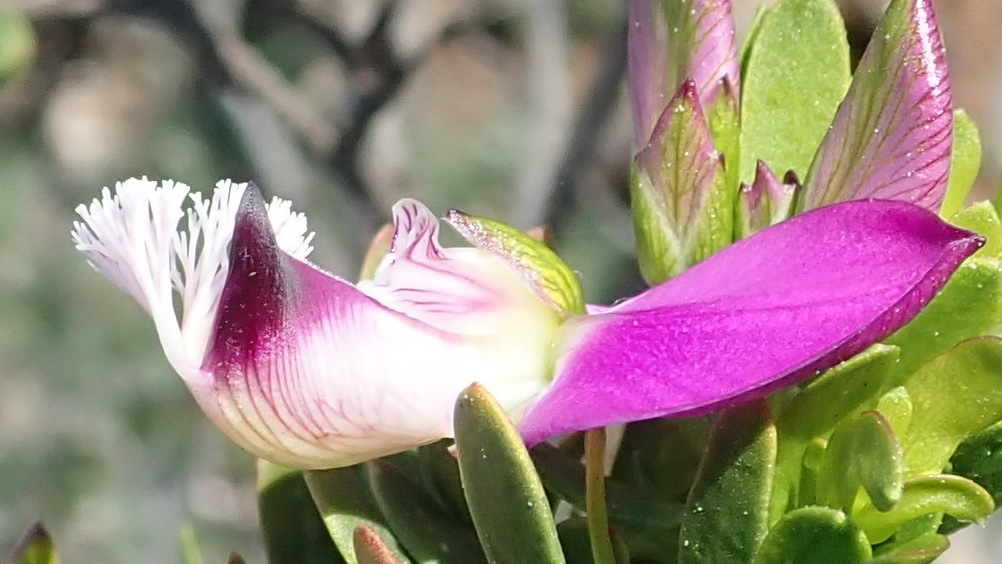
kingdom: Plantae
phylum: Tracheophyta
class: Magnoliopsida
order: Fabales
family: Polygalaceae
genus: Polygala
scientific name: Polygala myrtifolia
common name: Myrtle-leaf milkwort
